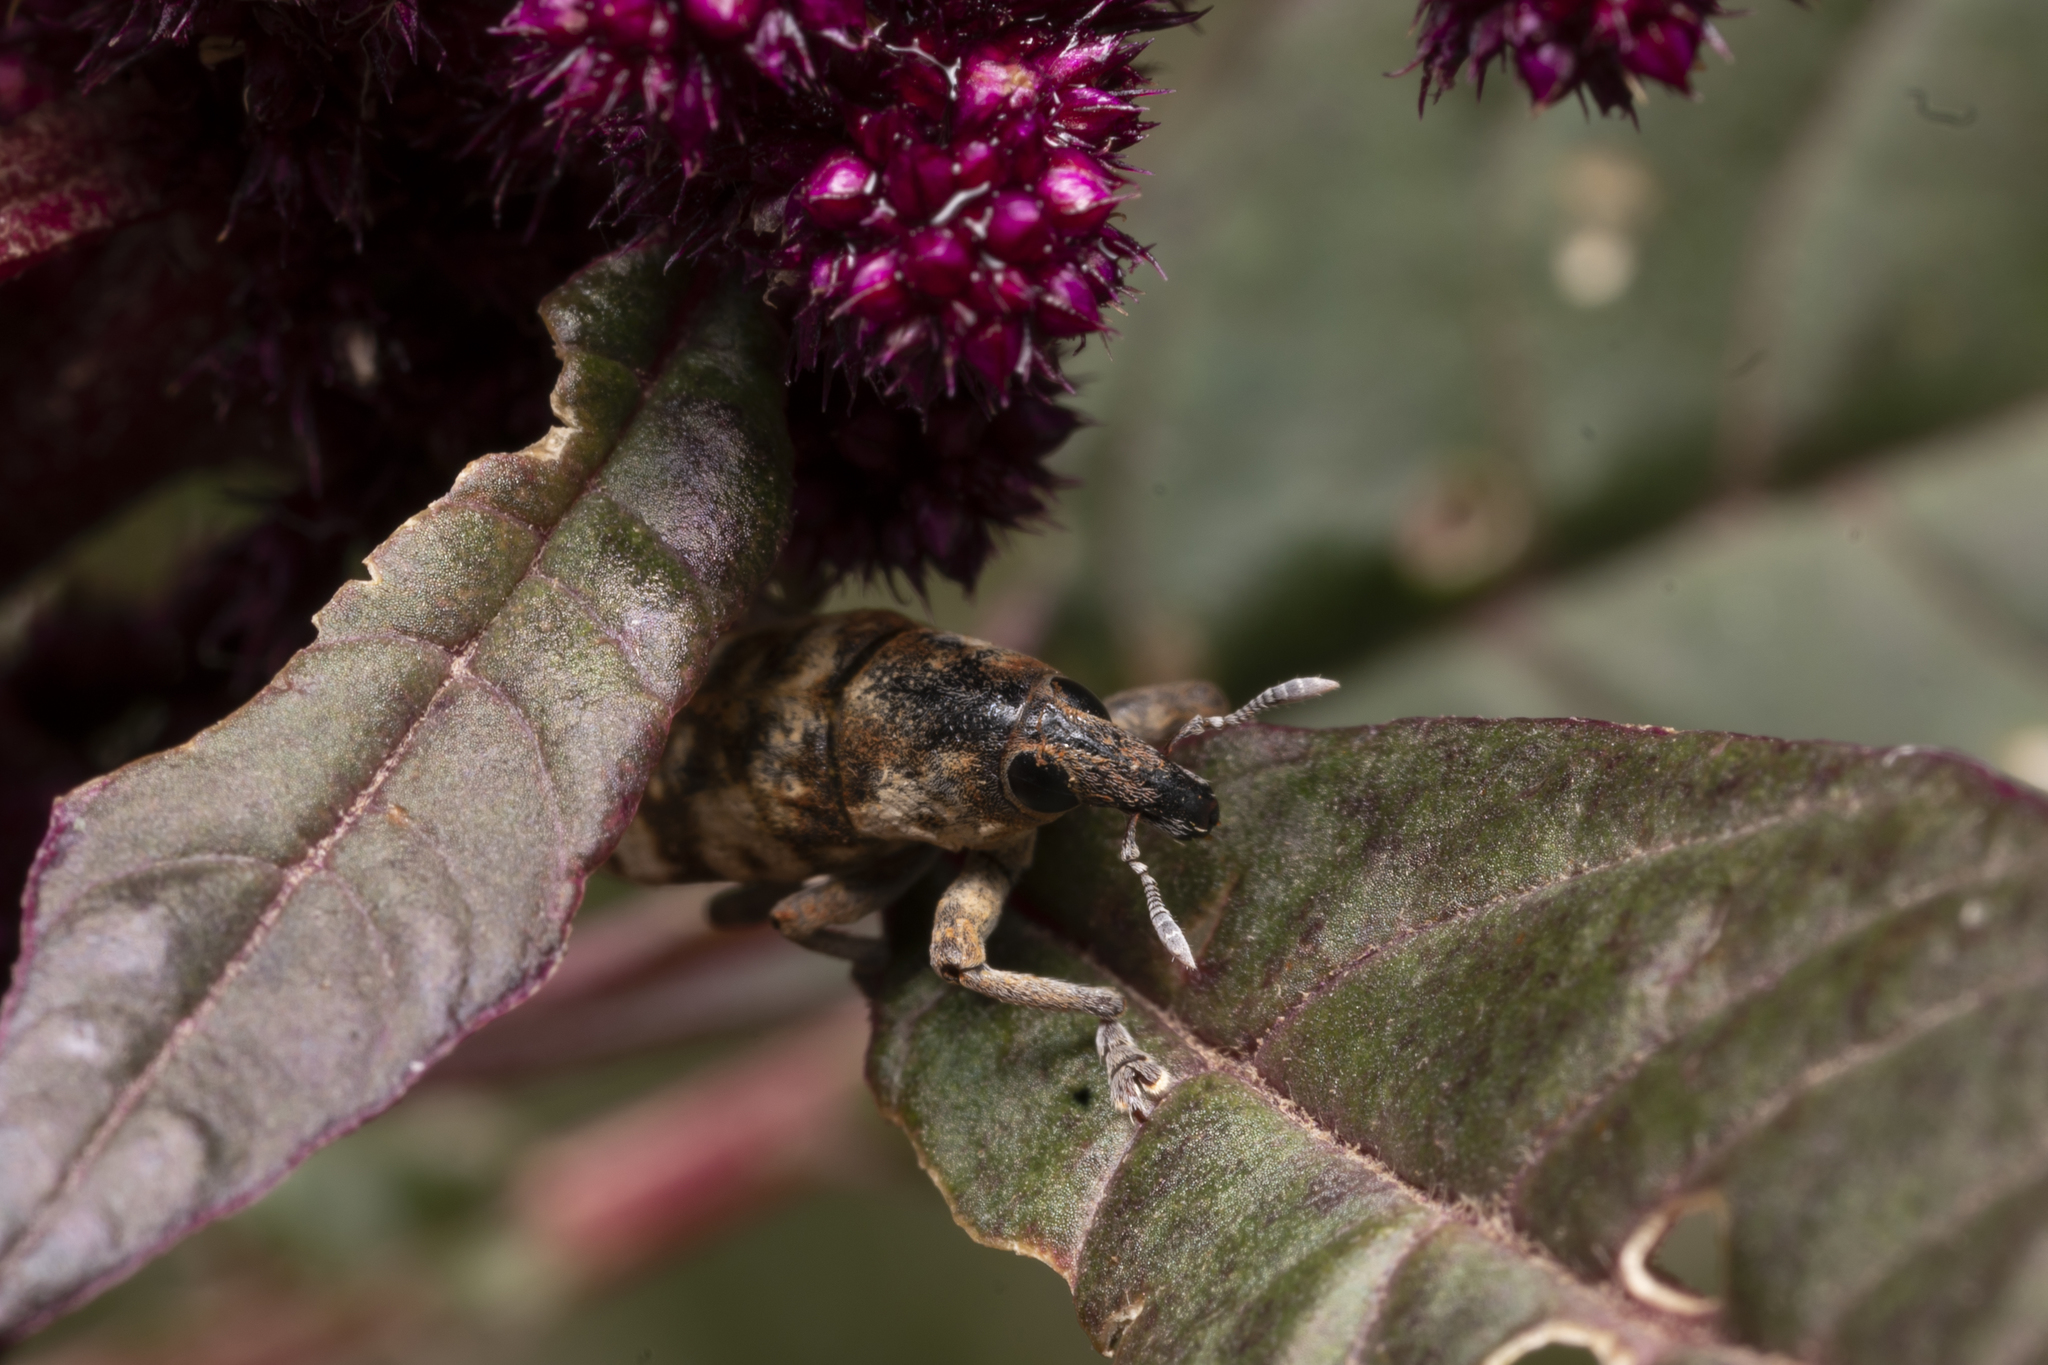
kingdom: Animalia
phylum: Arthropoda
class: Insecta
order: Coleoptera
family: Curculionidae
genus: Hypolixus
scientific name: Hypolixus pica
